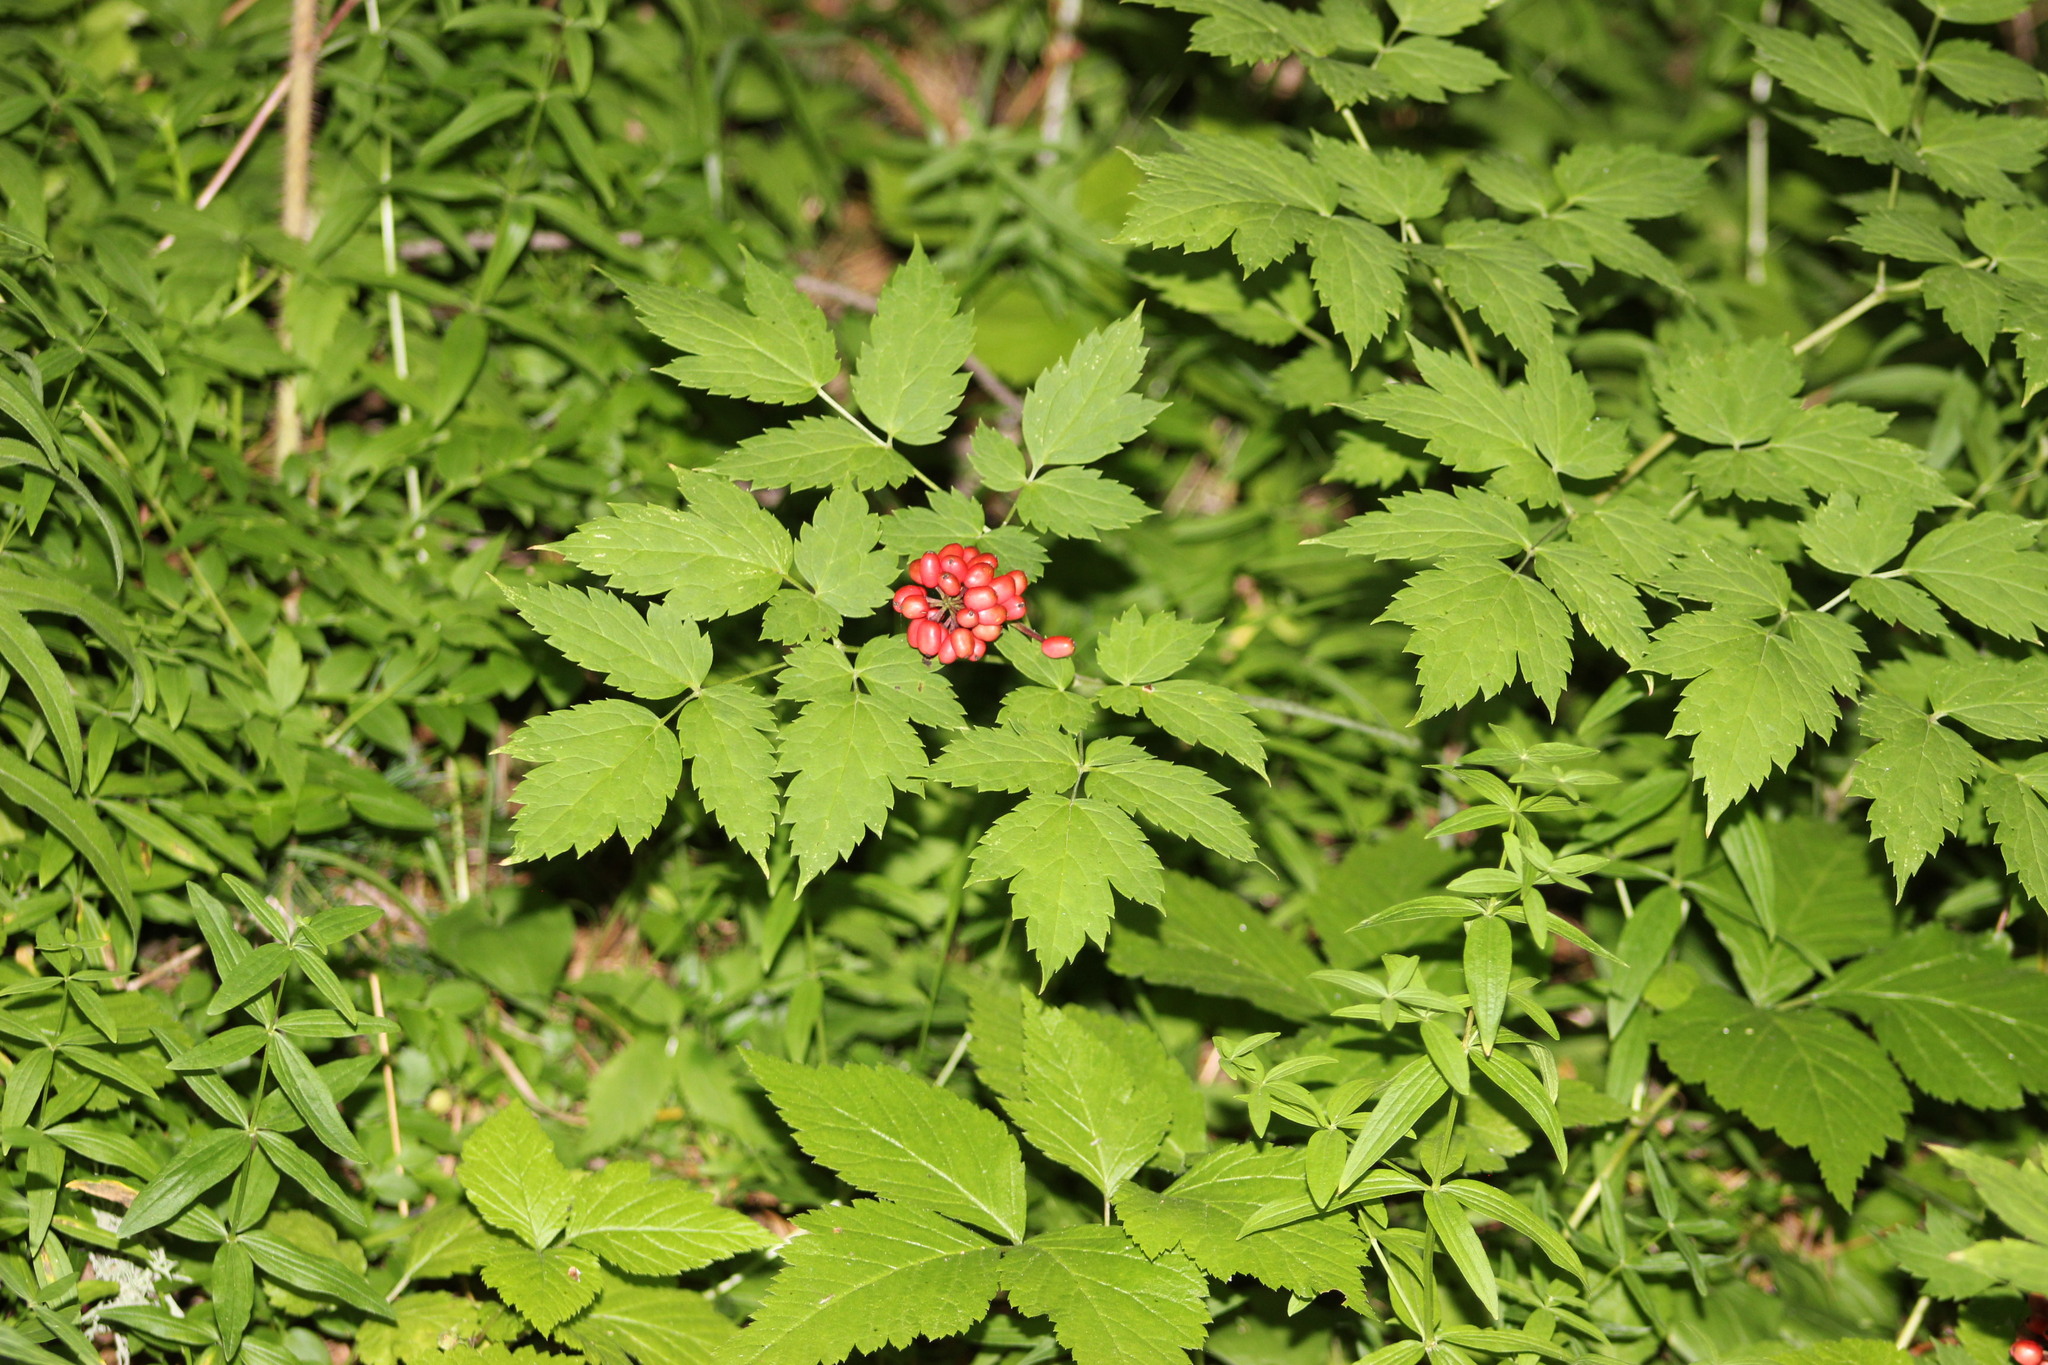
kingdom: Plantae
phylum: Tracheophyta
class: Magnoliopsida
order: Ranunculales
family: Ranunculaceae
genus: Actaea
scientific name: Actaea erythrocarpa
